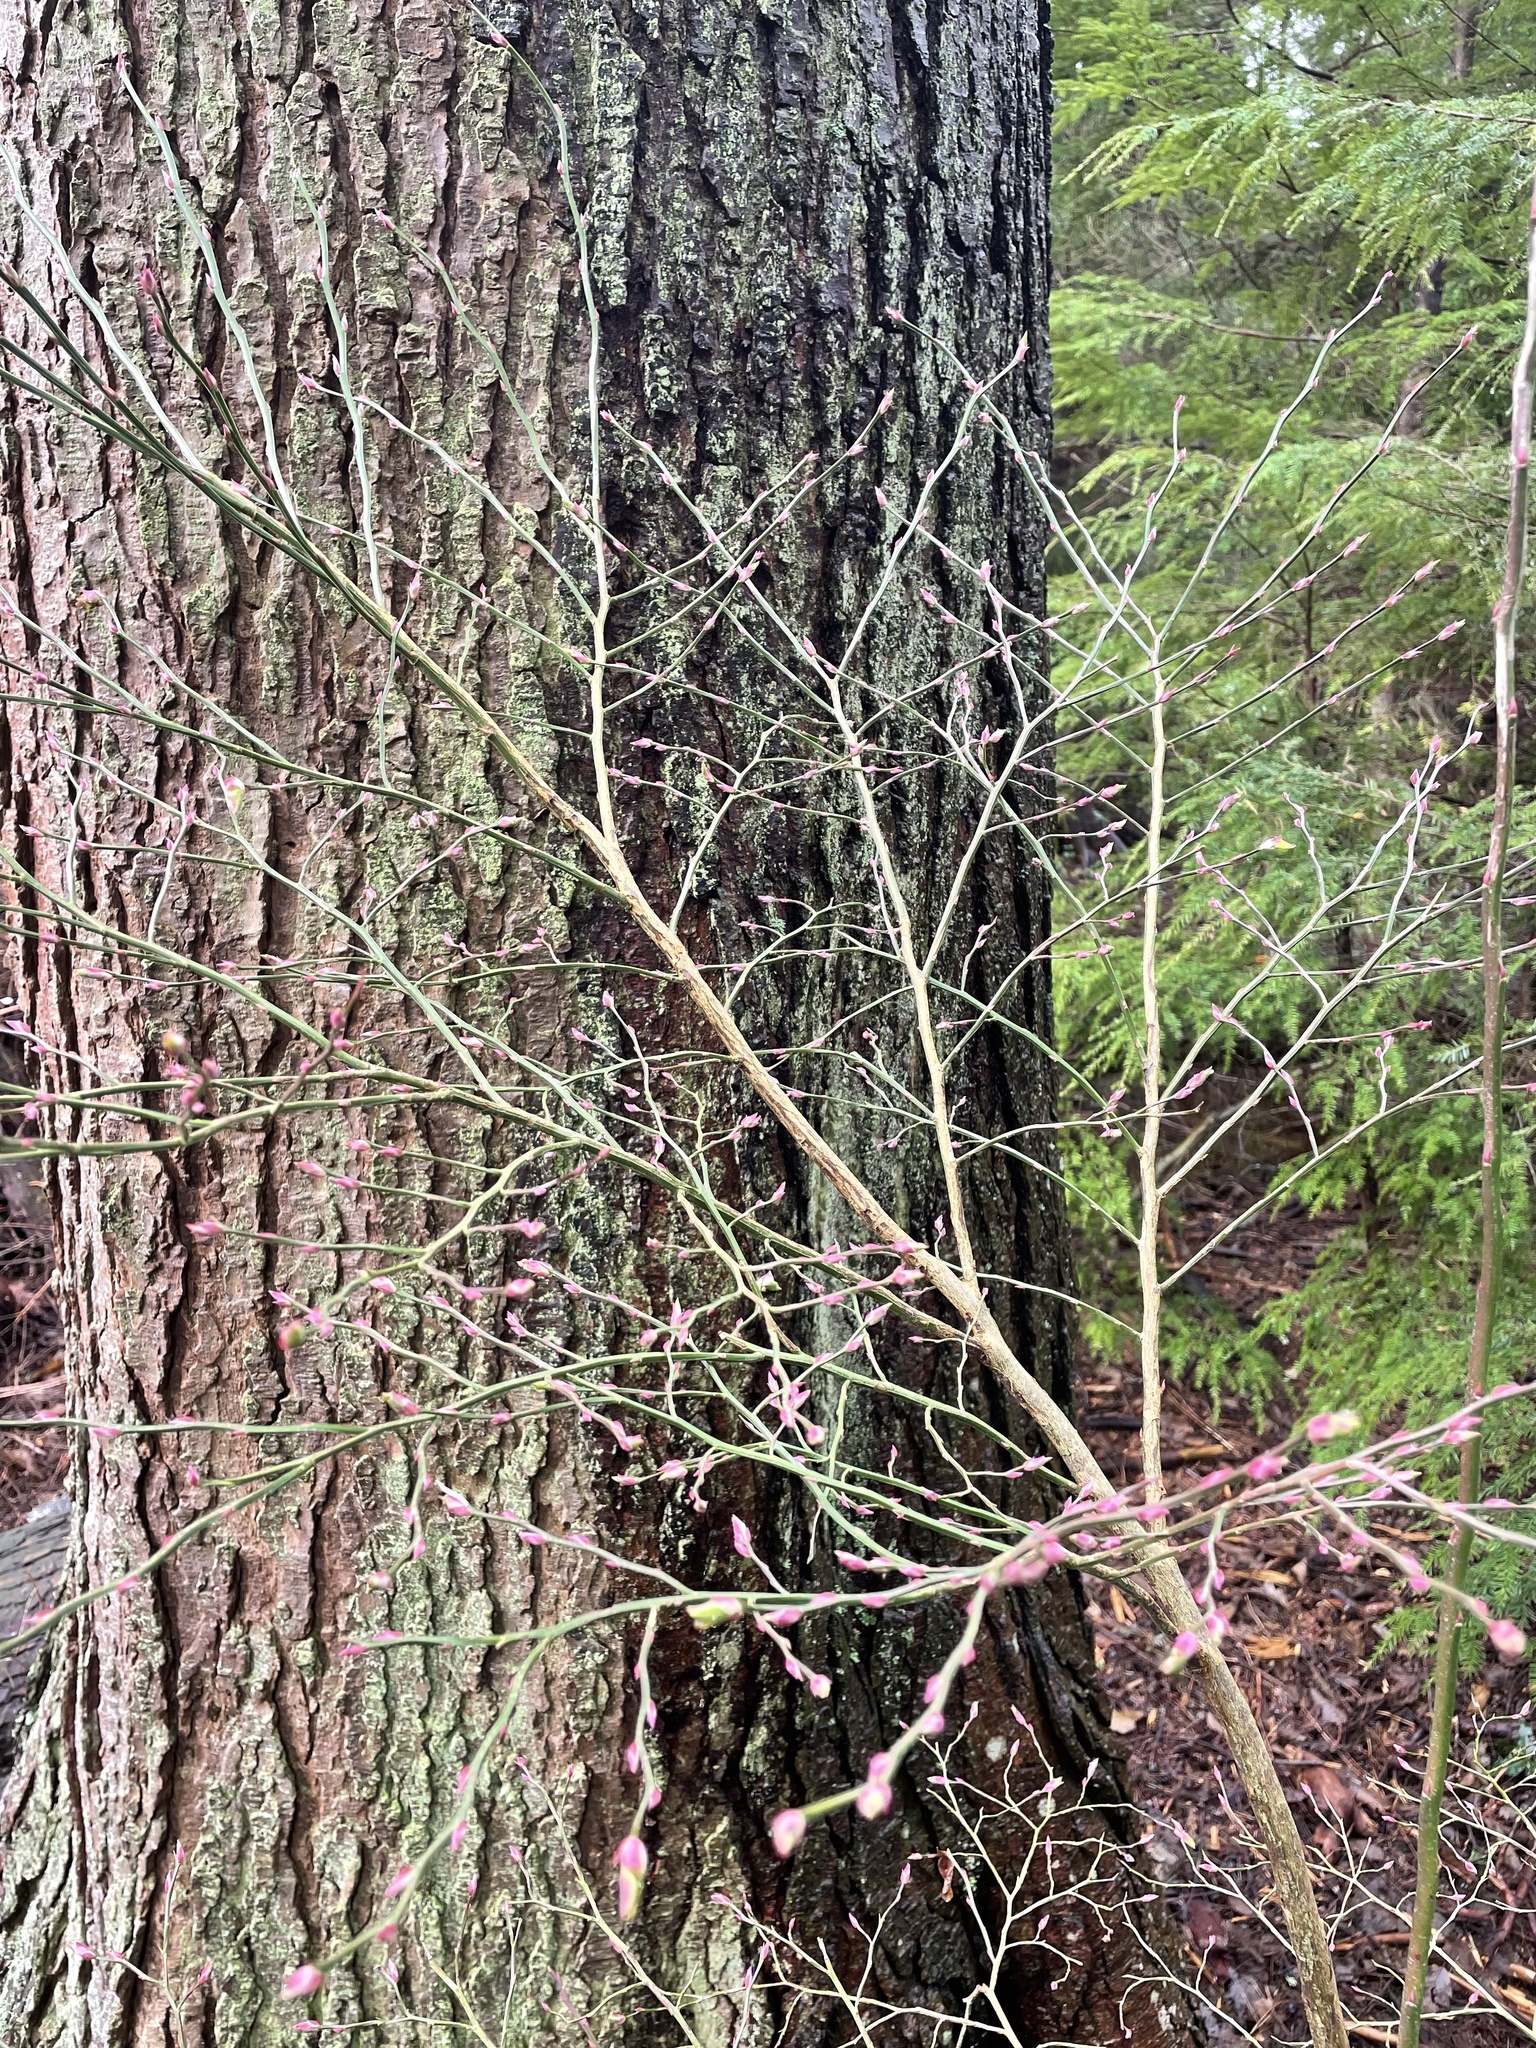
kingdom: Plantae
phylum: Tracheophyta
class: Magnoliopsida
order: Ericales
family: Ericaceae
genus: Vaccinium
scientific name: Vaccinium parvifolium
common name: Red-huckleberry
